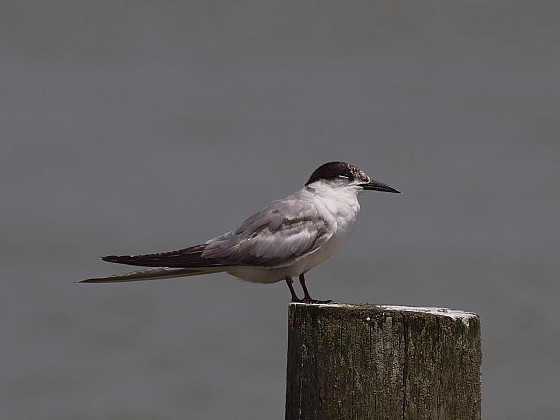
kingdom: Animalia
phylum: Chordata
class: Aves
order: Charadriiformes
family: Laridae
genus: Sterna
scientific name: Sterna hirundo
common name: Common tern
